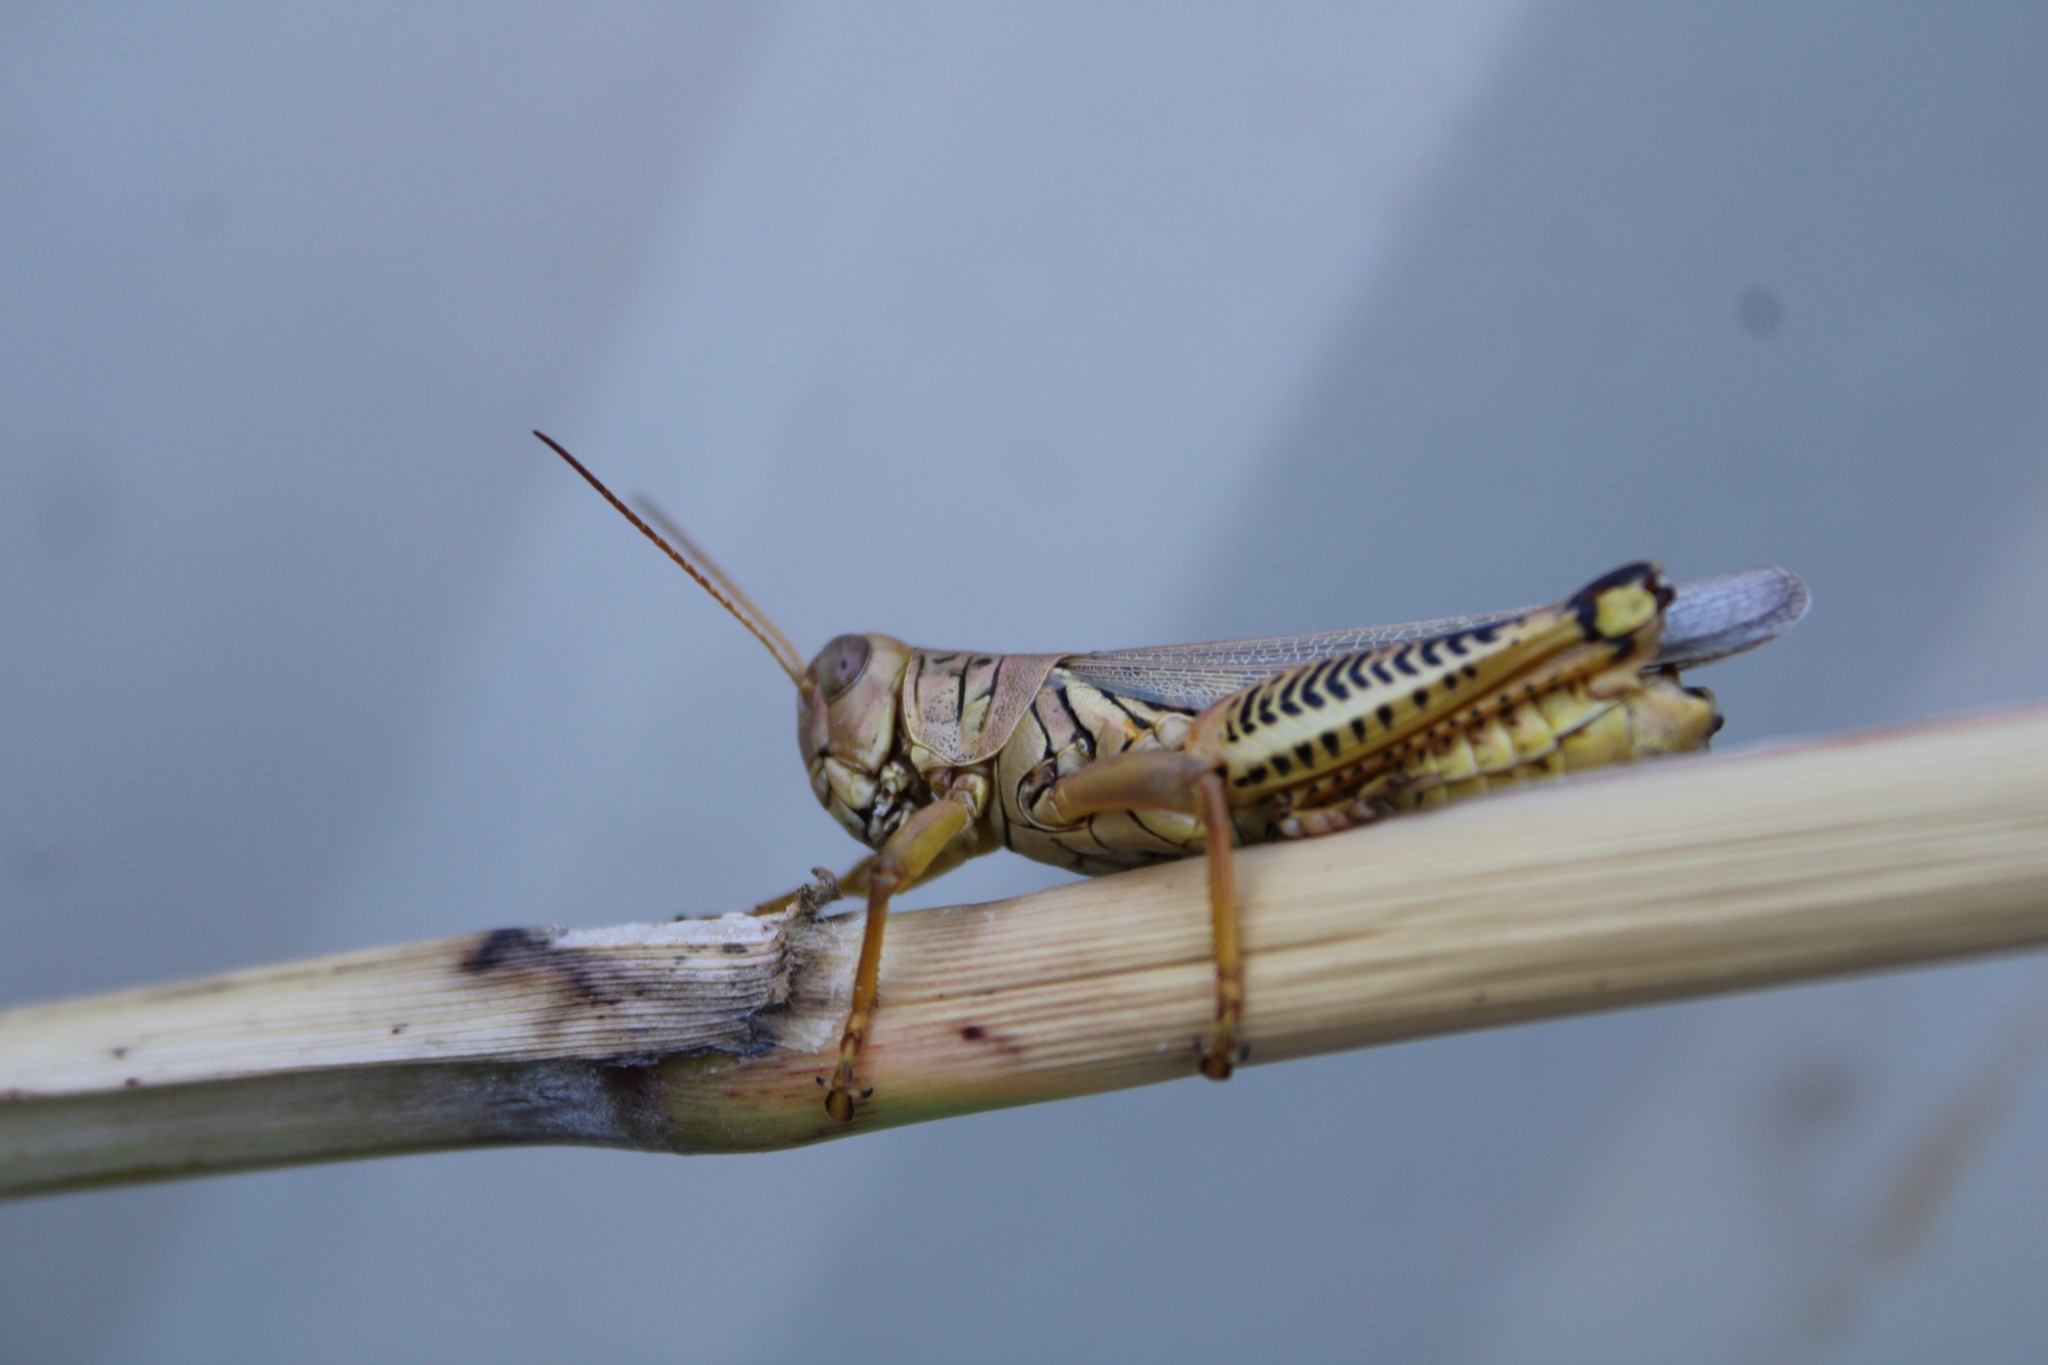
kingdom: Animalia
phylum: Arthropoda
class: Insecta
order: Orthoptera
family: Acrididae
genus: Melanoplus
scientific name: Melanoplus differentialis
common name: Differential grasshopper
